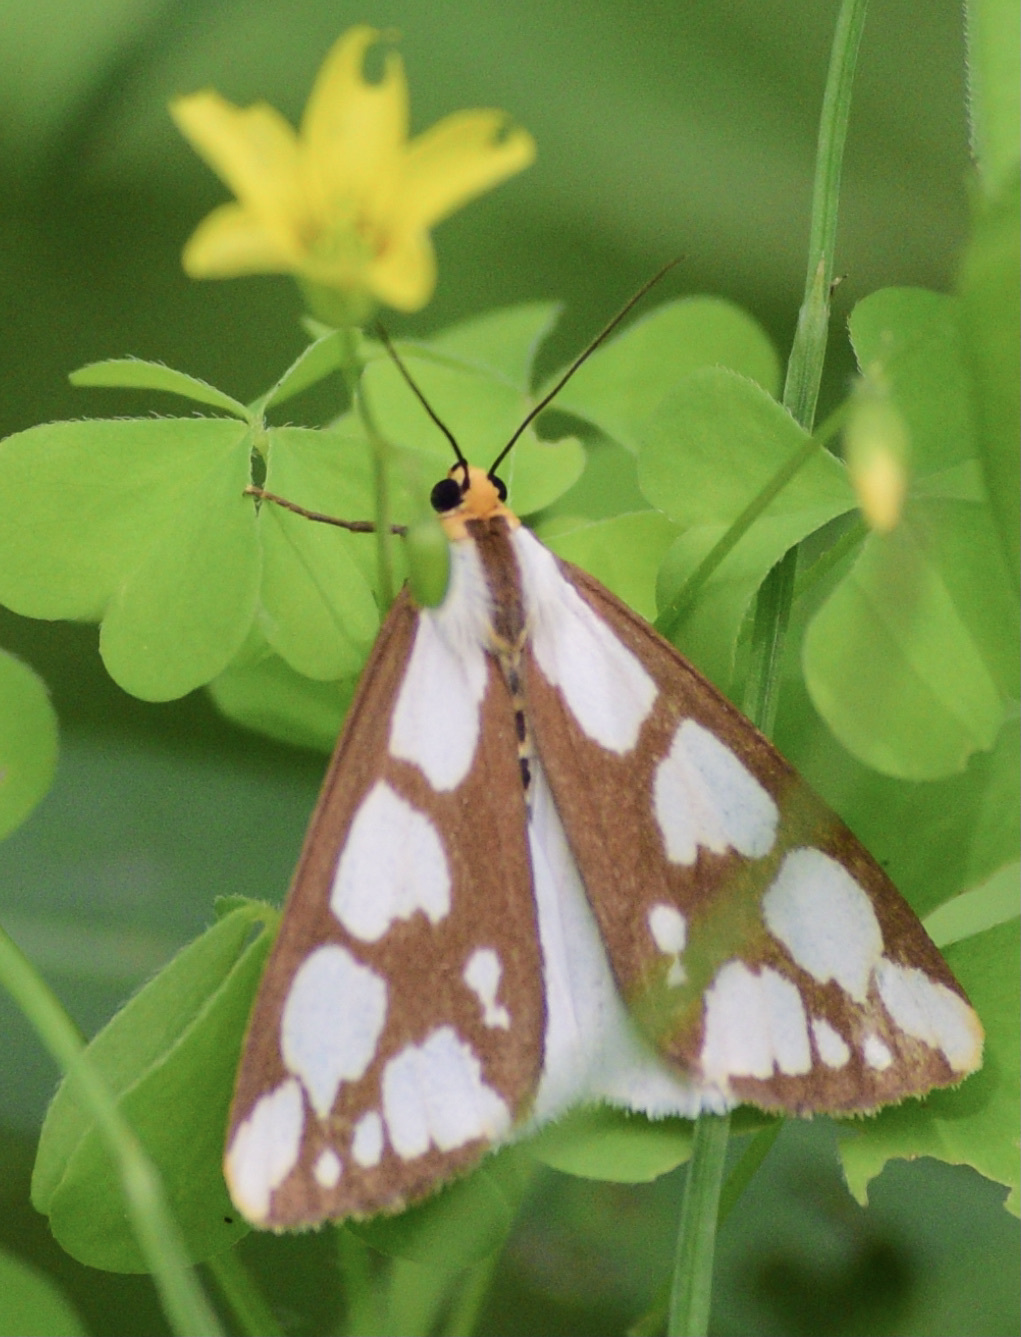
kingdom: Animalia
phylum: Arthropoda
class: Insecta
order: Lepidoptera
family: Erebidae
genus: Haploa
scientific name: Haploa confusa
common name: Confused haploa moth
